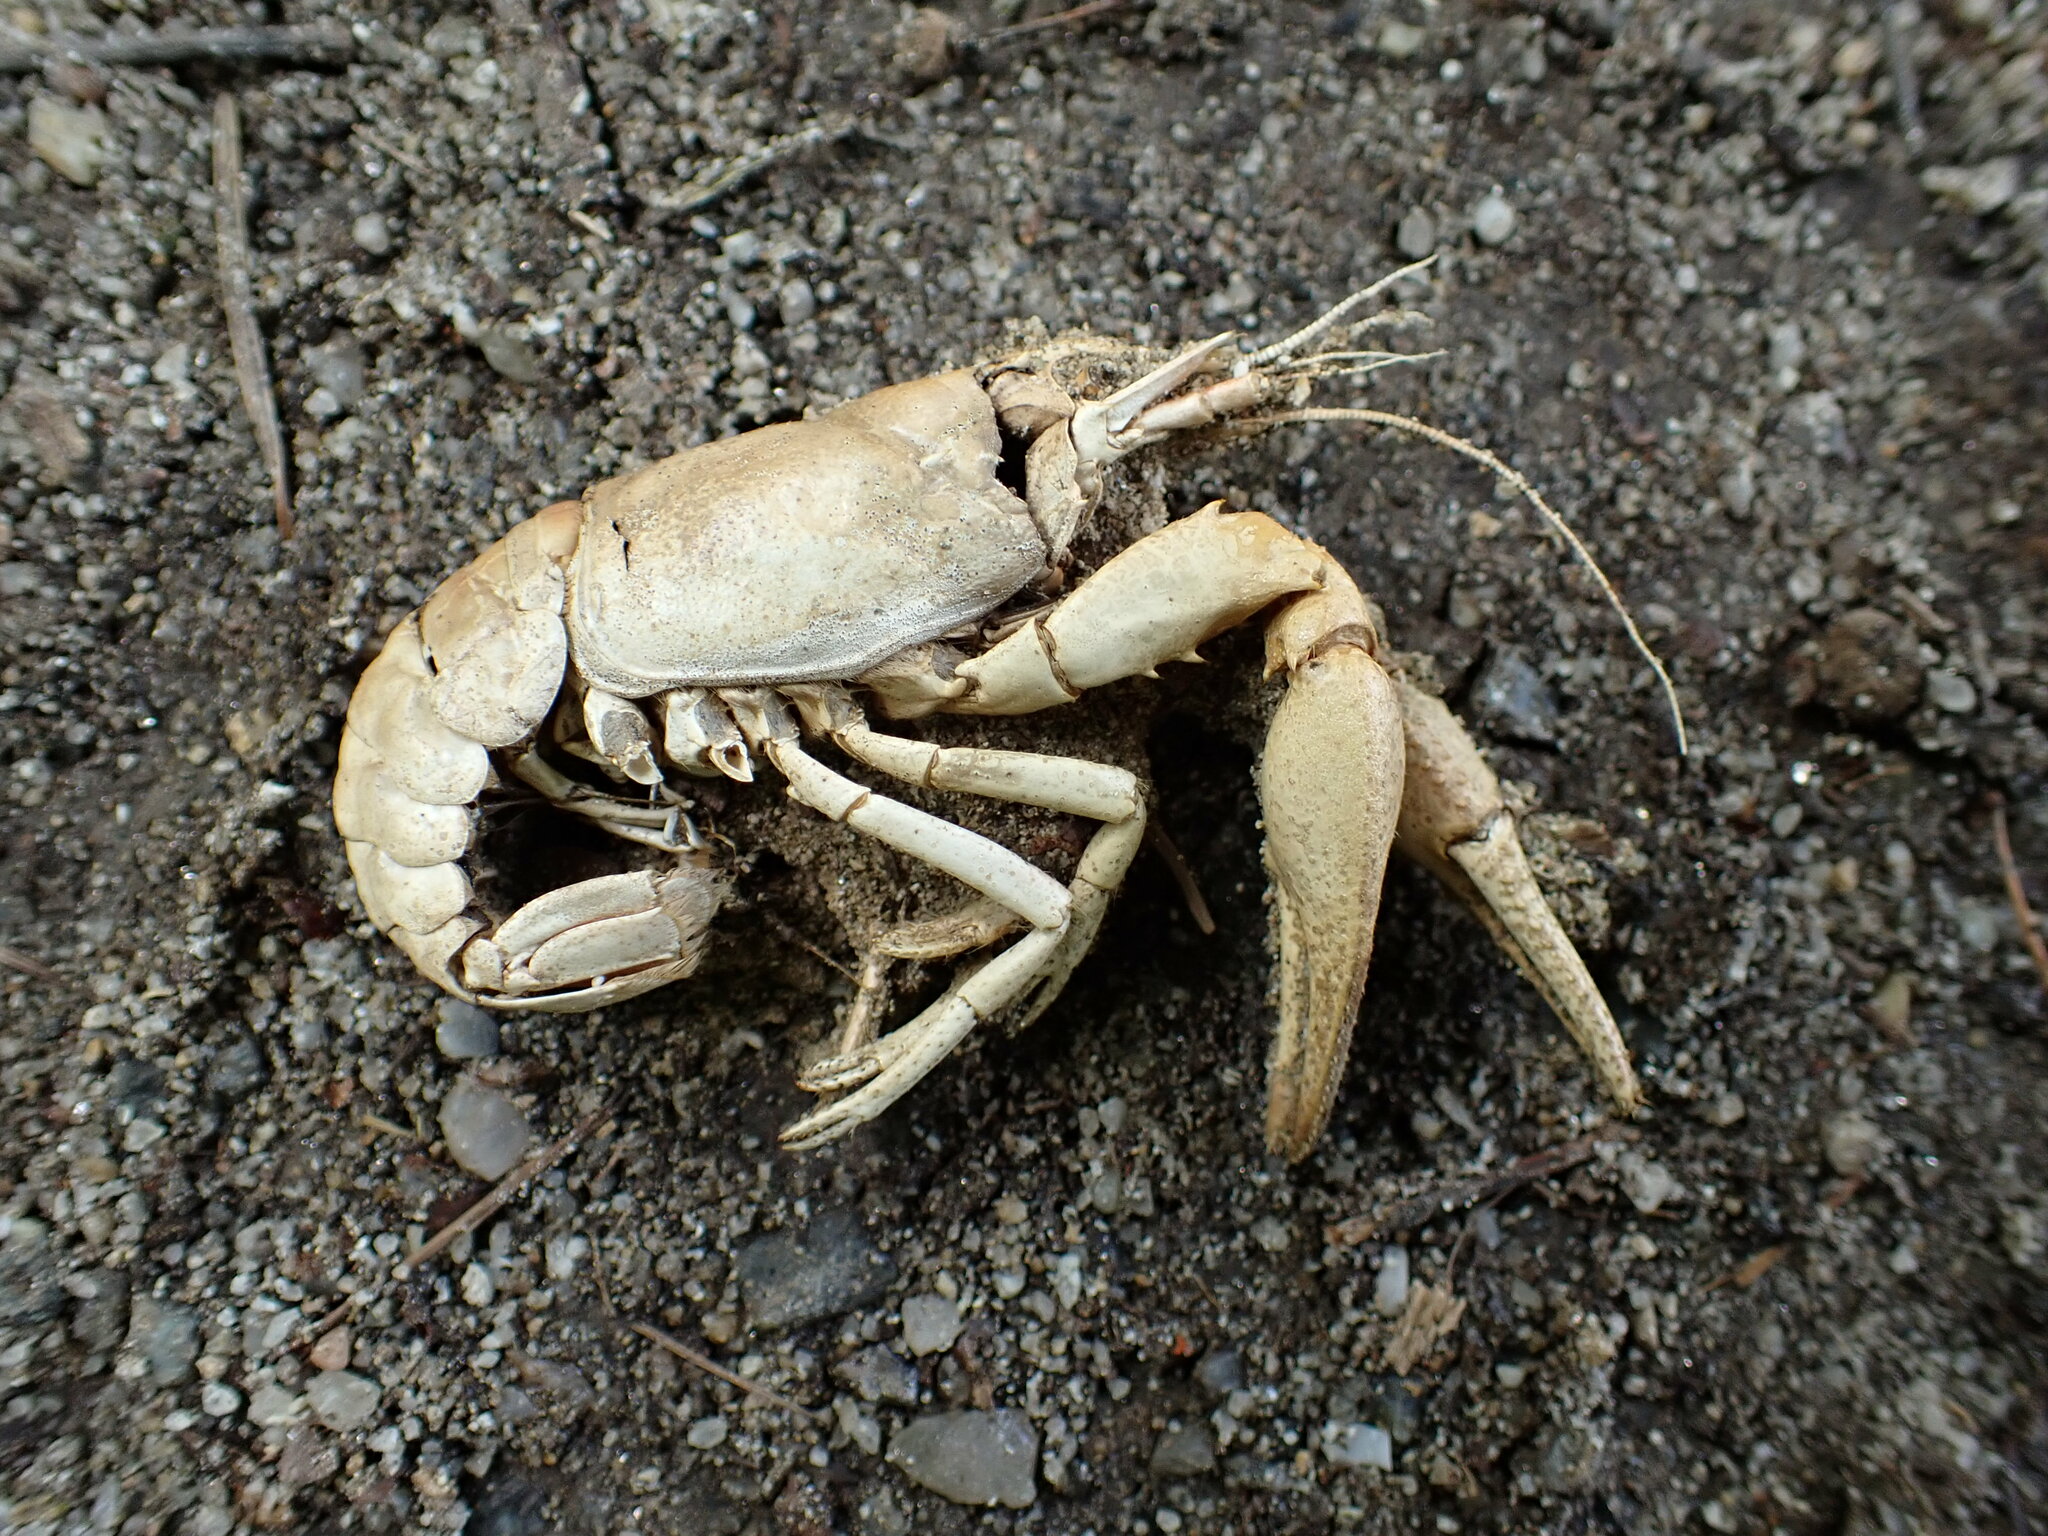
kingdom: Animalia
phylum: Arthropoda
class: Malacostraca
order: Decapoda
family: Cambaridae
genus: Faxonius
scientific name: Faxonius limosus
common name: American crayfish
